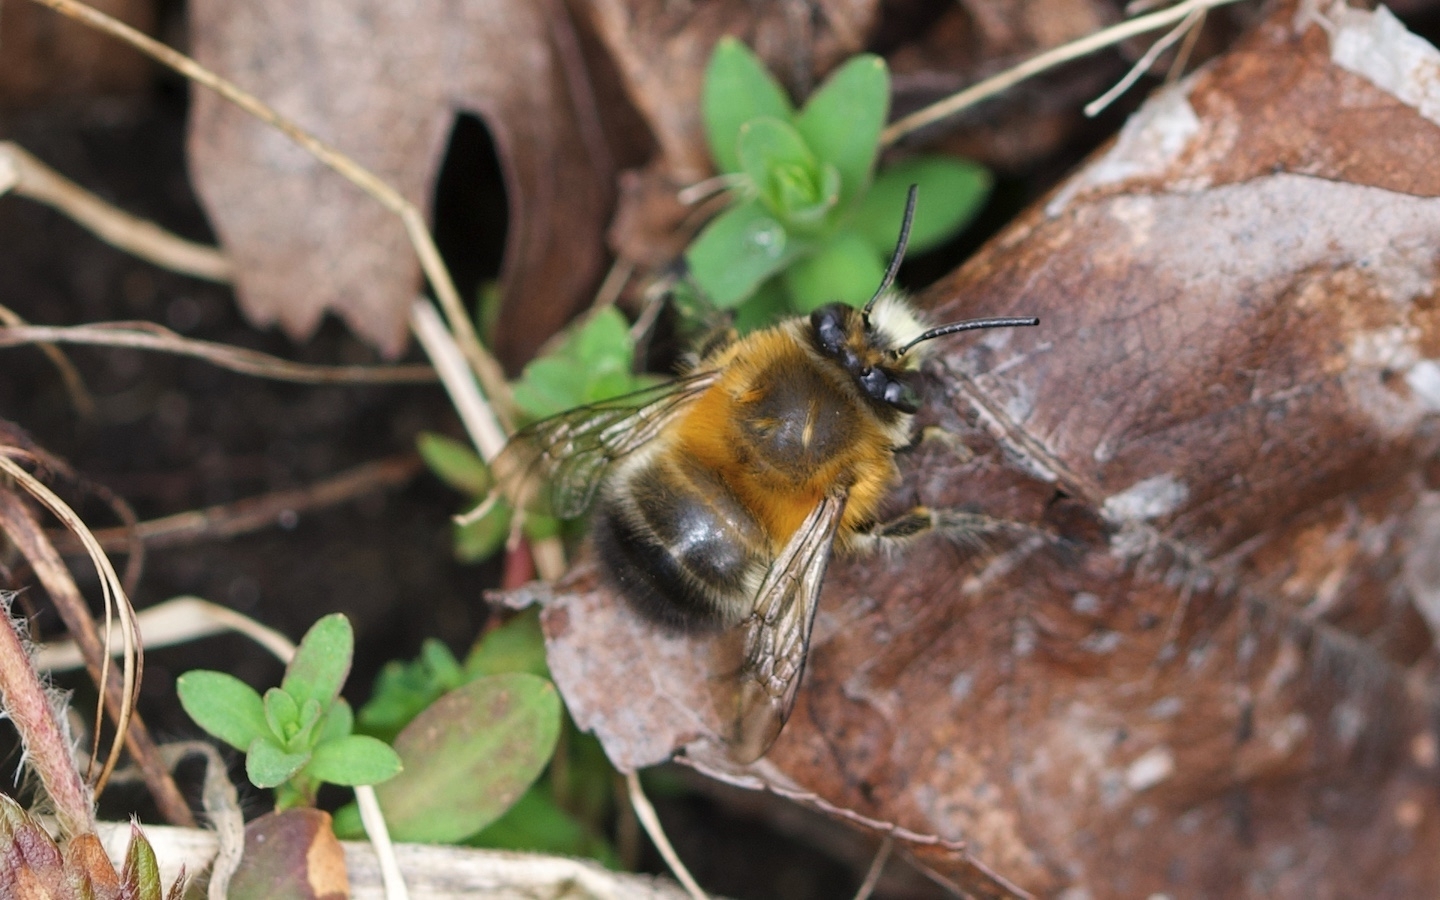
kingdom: Animalia
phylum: Arthropoda
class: Insecta
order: Hymenoptera
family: Apidae
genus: Anthophora
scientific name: Anthophora plumipes
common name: Hairy-footed flower bee
